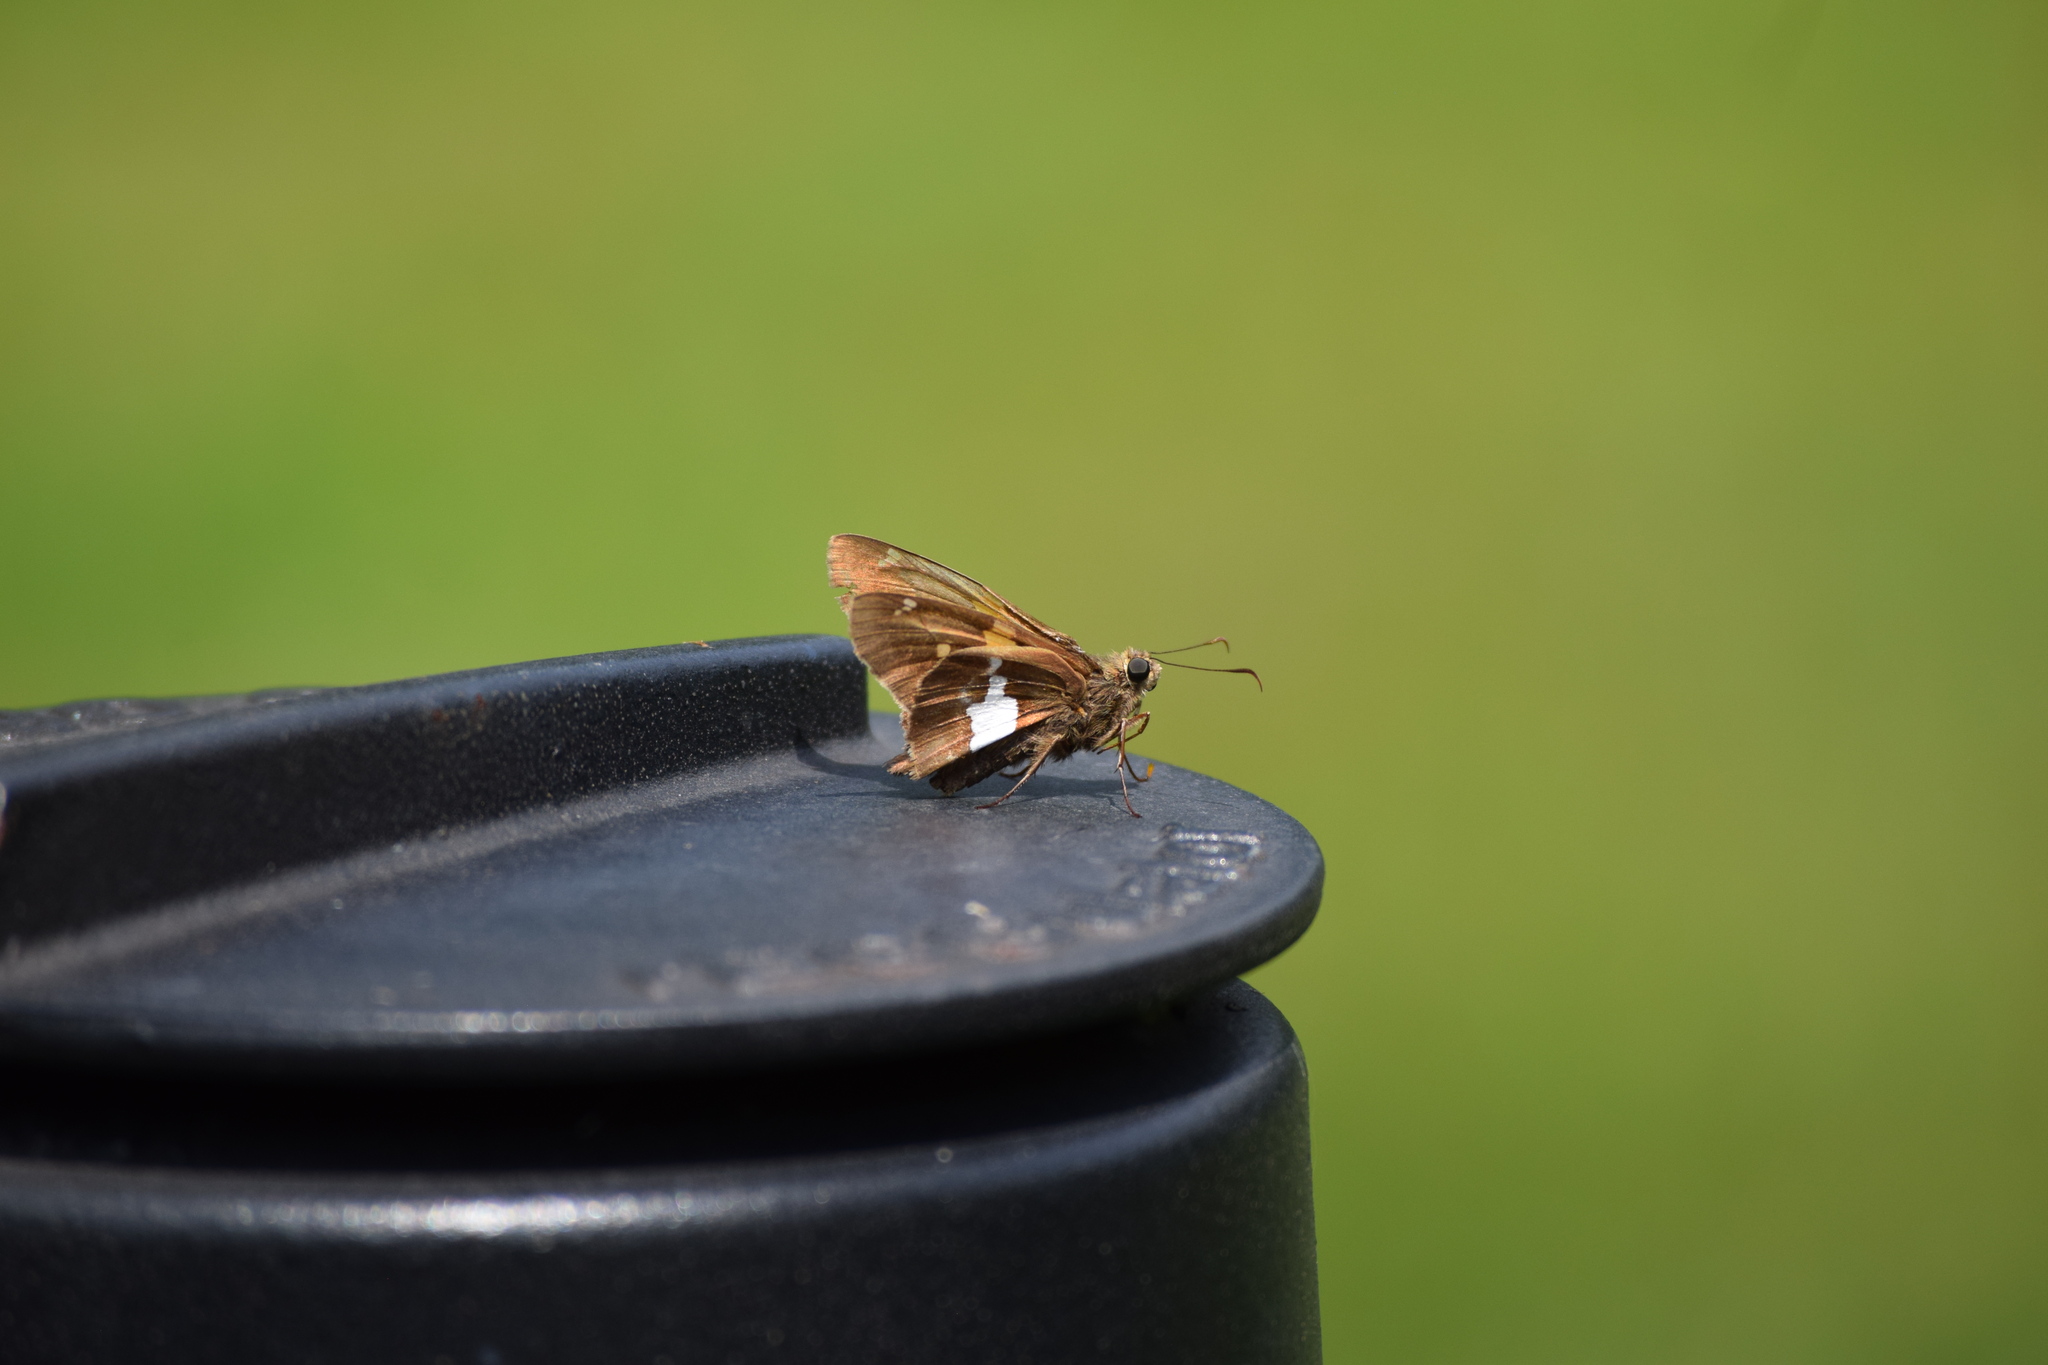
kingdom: Animalia
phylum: Arthropoda
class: Insecta
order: Lepidoptera
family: Hesperiidae
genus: Epargyreus
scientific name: Epargyreus clarus
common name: Silver-spotted skipper
